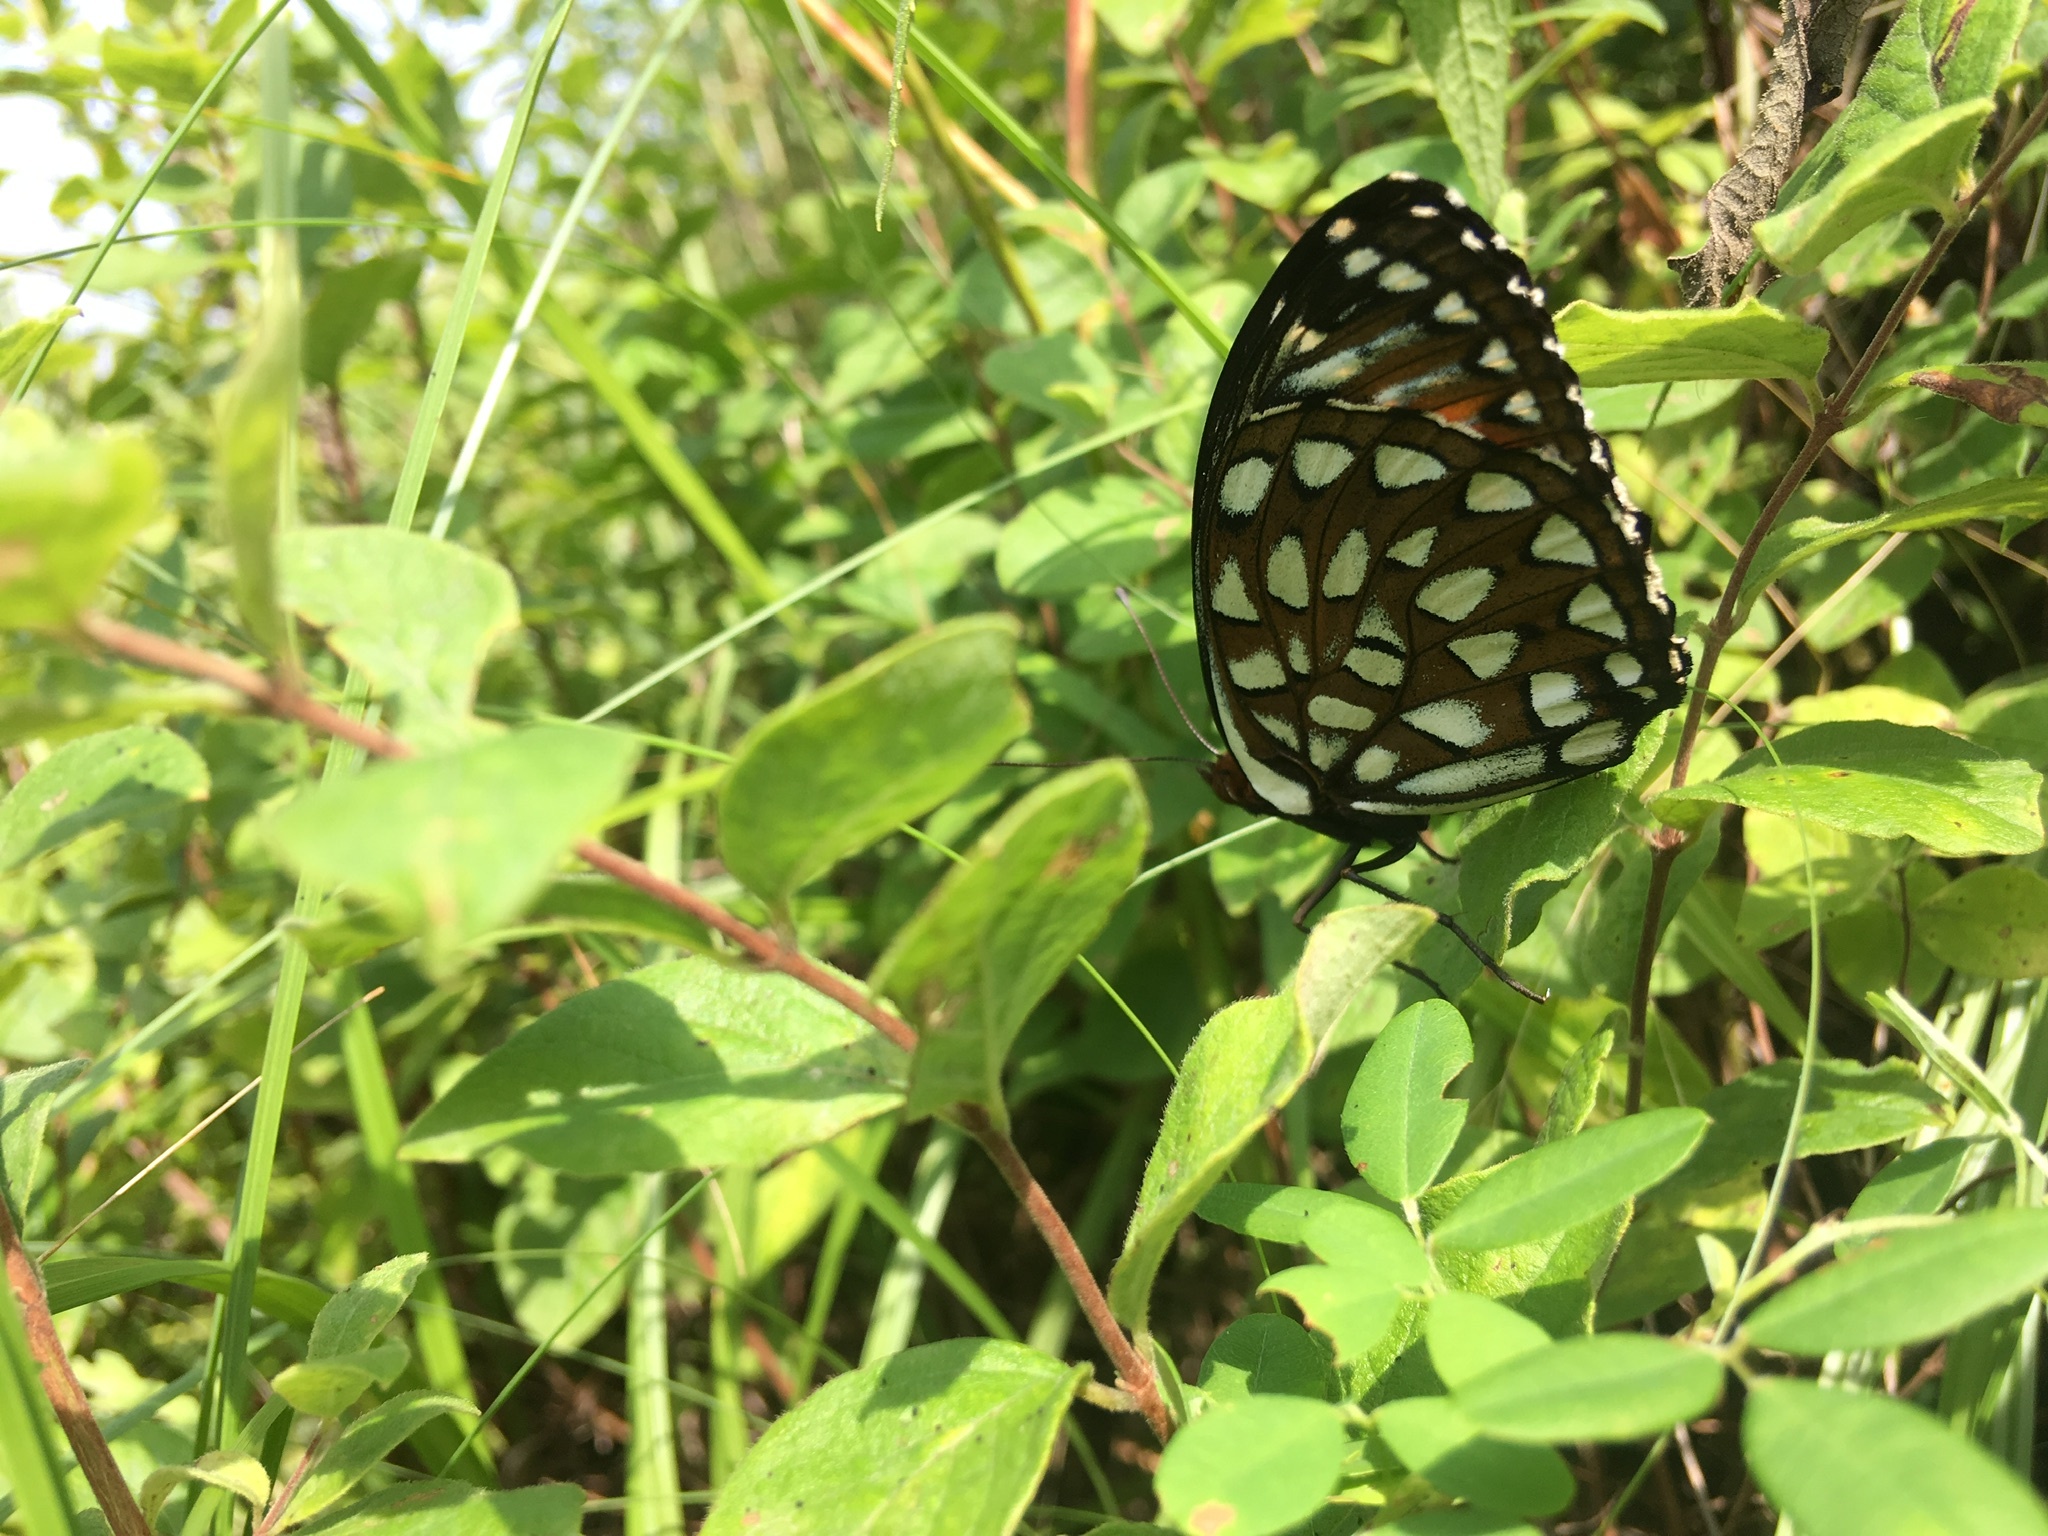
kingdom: Animalia
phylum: Arthropoda
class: Insecta
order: Lepidoptera
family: Nymphalidae
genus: Speyeria
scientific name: Speyeria idalia
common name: Regal fritillary
